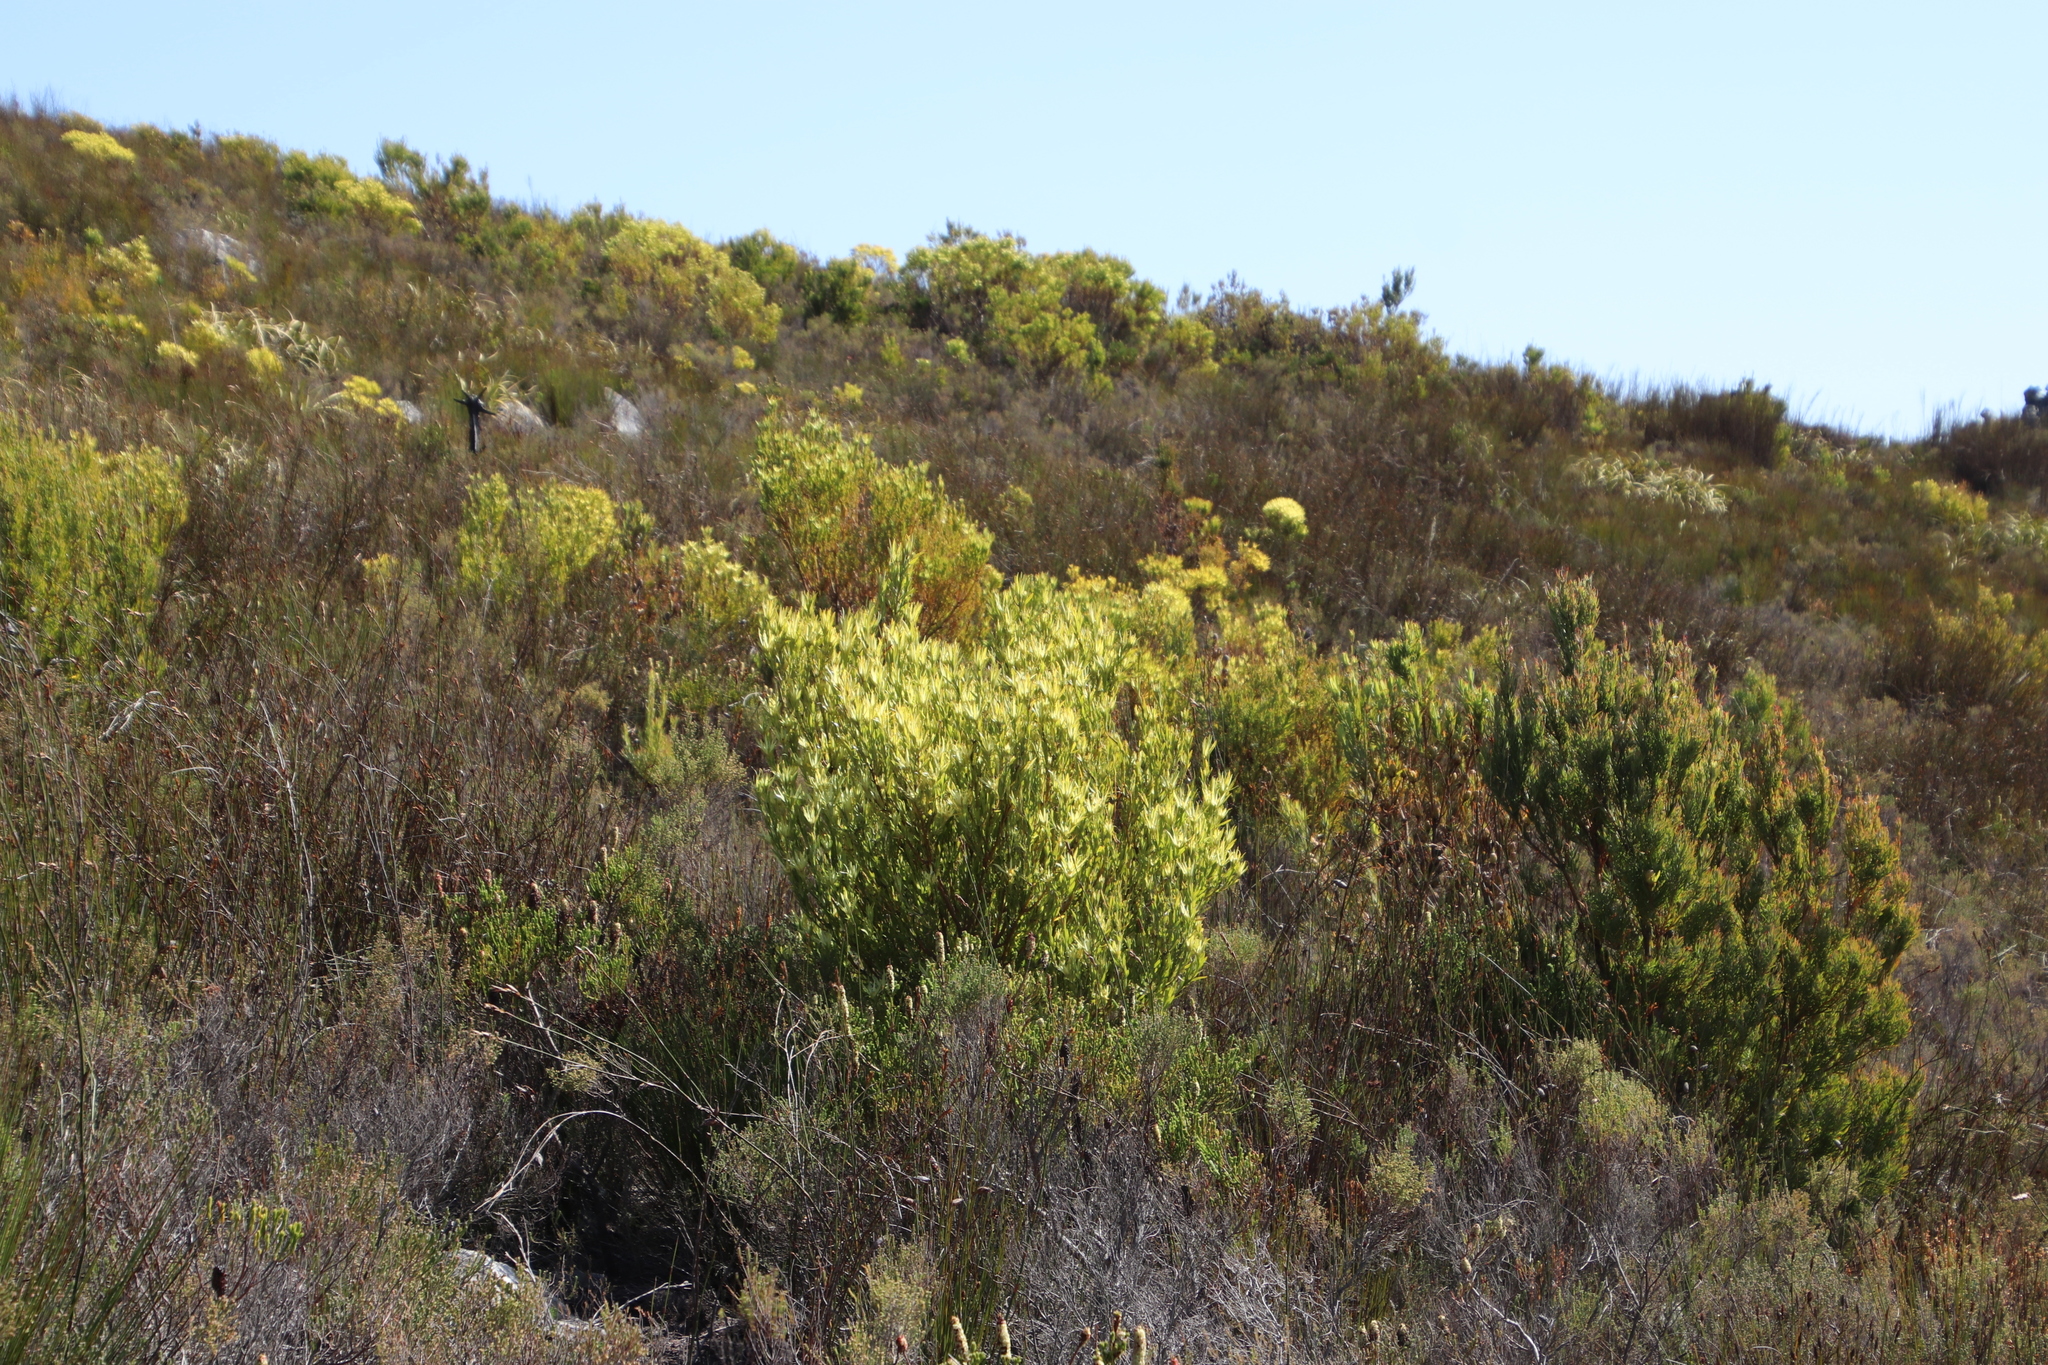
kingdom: Plantae
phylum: Tracheophyta
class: Magnoliopsida
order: Proteales
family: Proteaceae
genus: Leucadendron
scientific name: Leucadendron xanthoconus
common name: Sickle-leaf conebush
